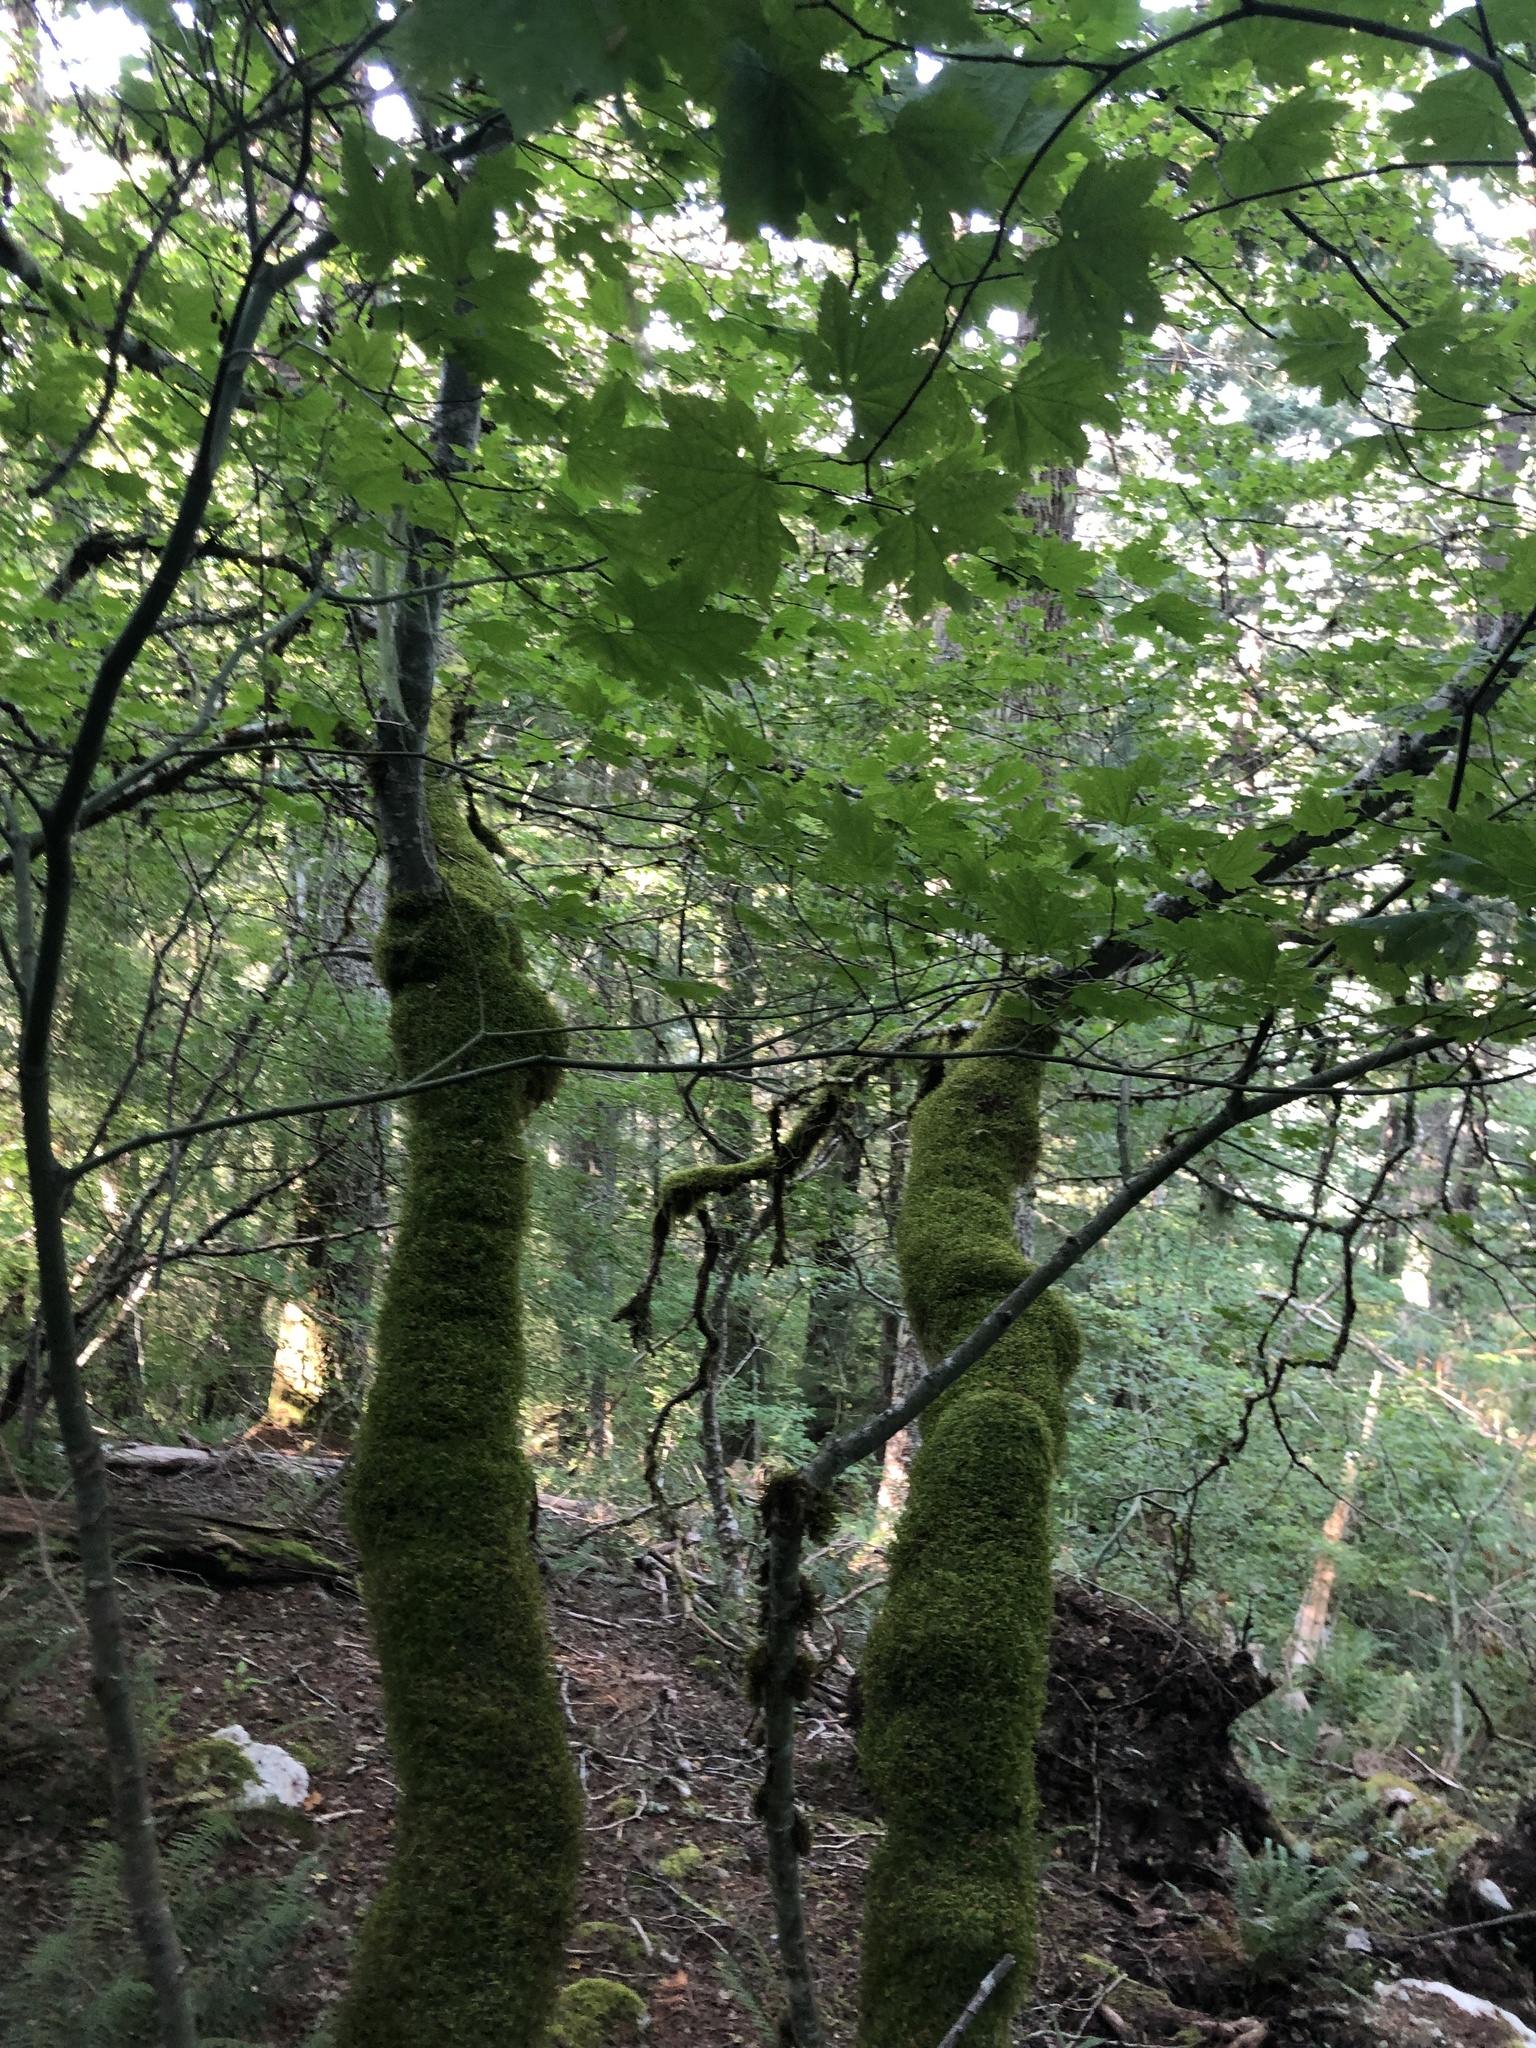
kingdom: Plantae
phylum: Tracheophyta
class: Magnoliopsida
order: Sapindales
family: Sapindaceae
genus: Acer
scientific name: Acer circinatum
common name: Vine maple
